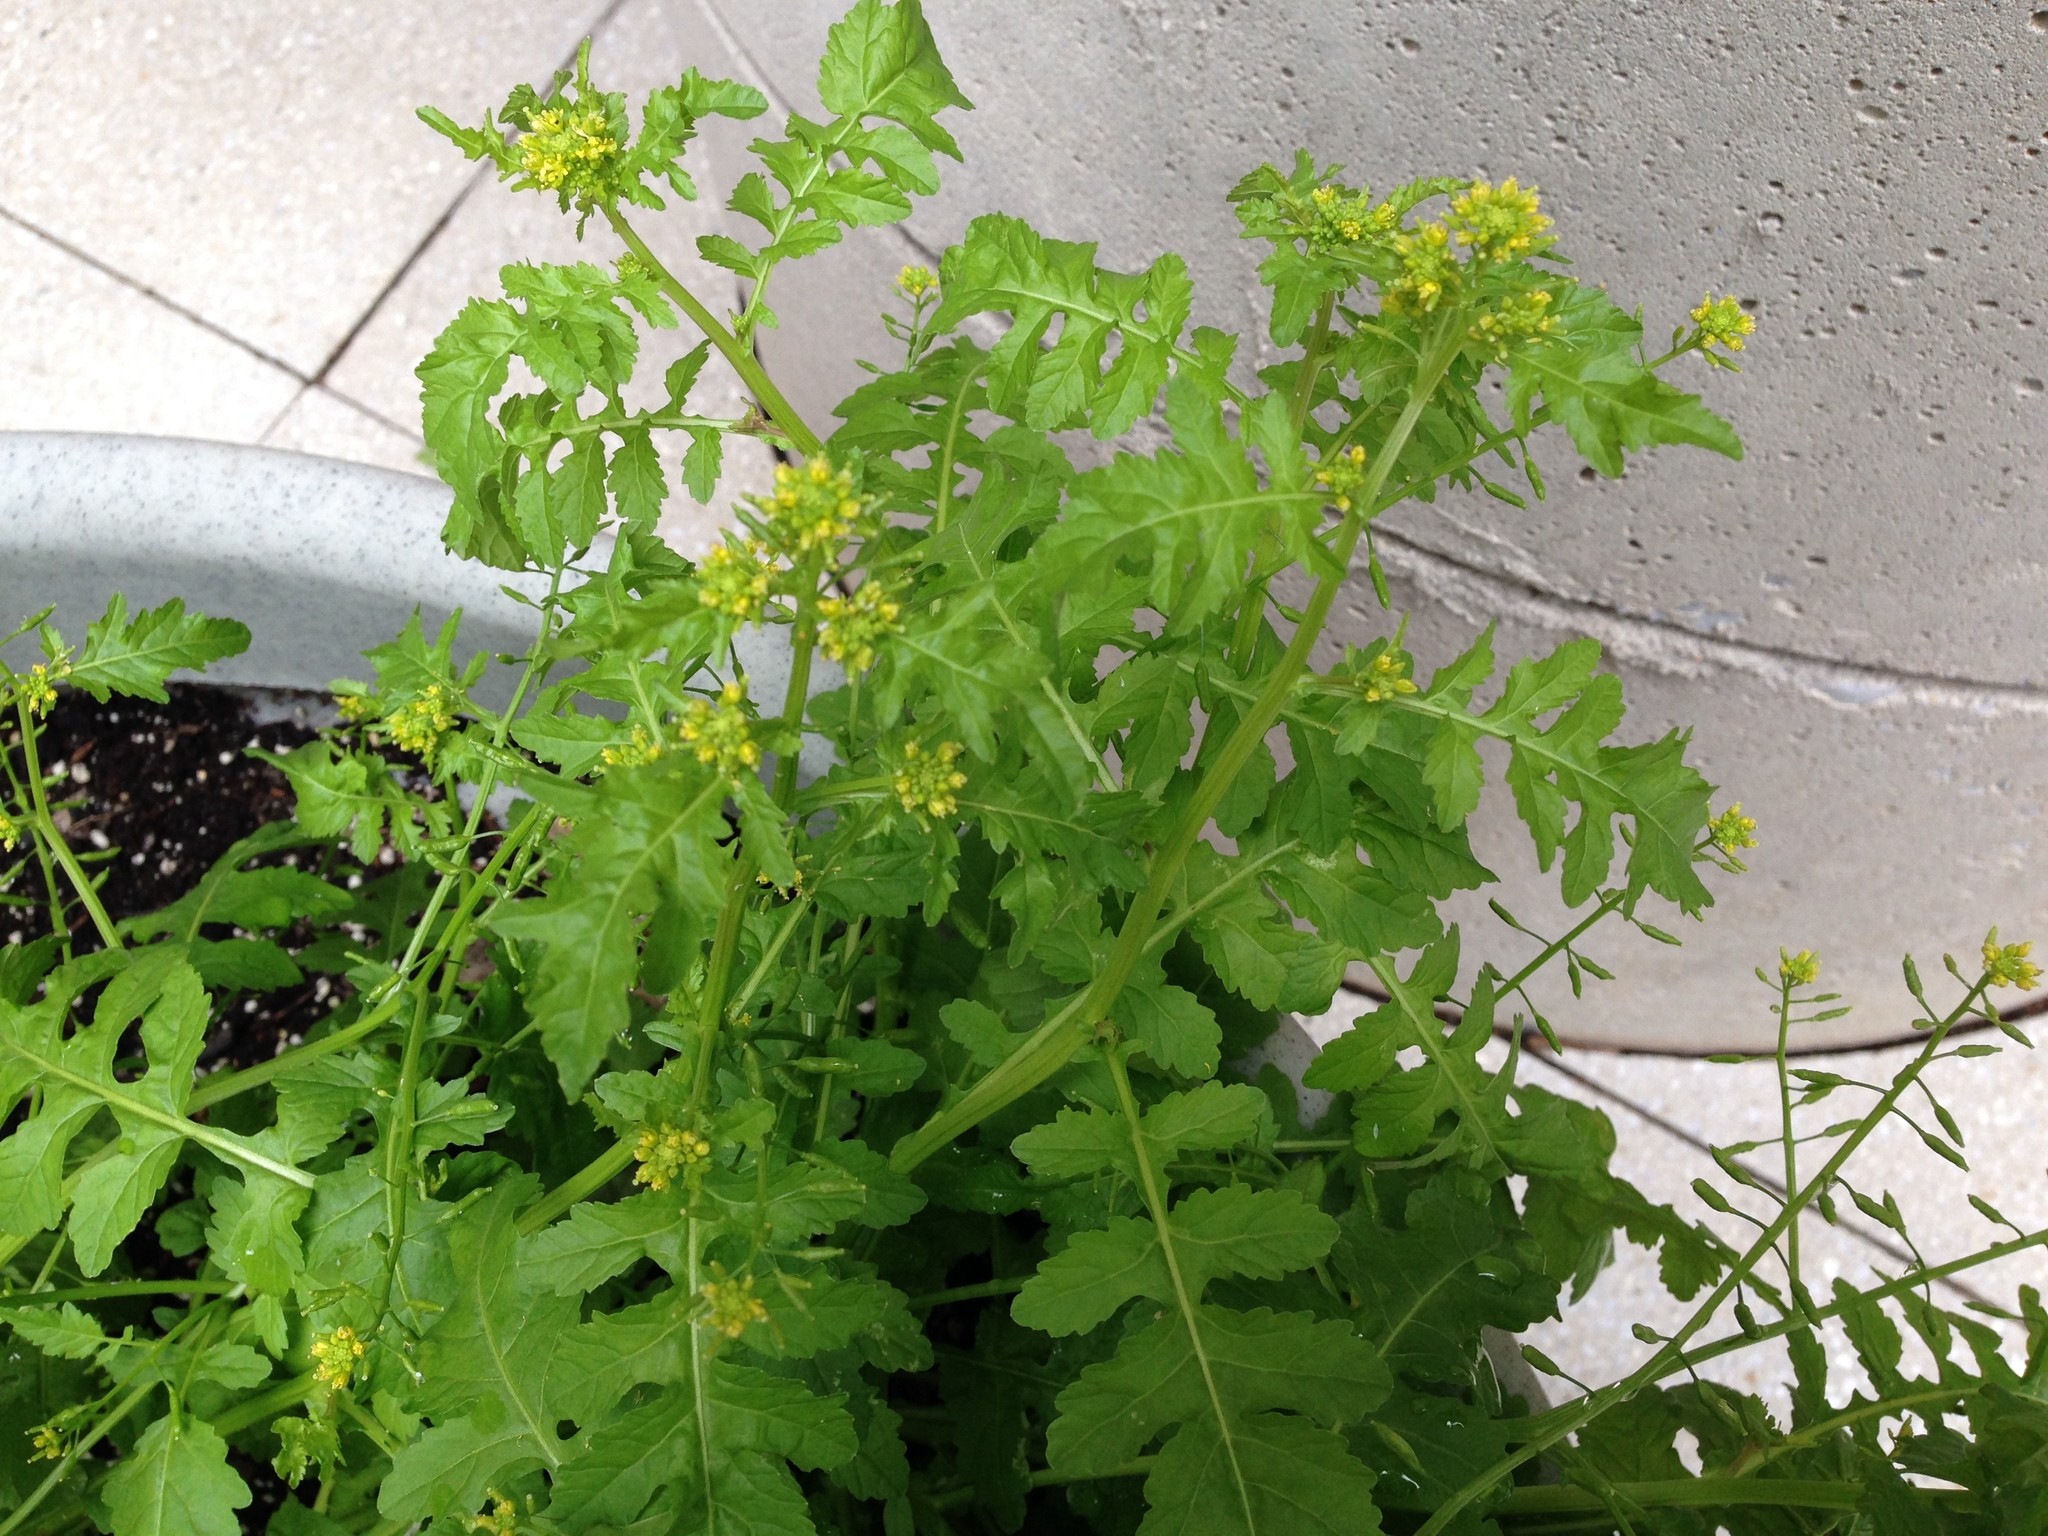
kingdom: Plantae
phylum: Tracheophyta
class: Magnoliopsida
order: Brassicales
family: Brassicaceae
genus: Rorippa
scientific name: Rorippa palustris
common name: Marsh yellow-cress
